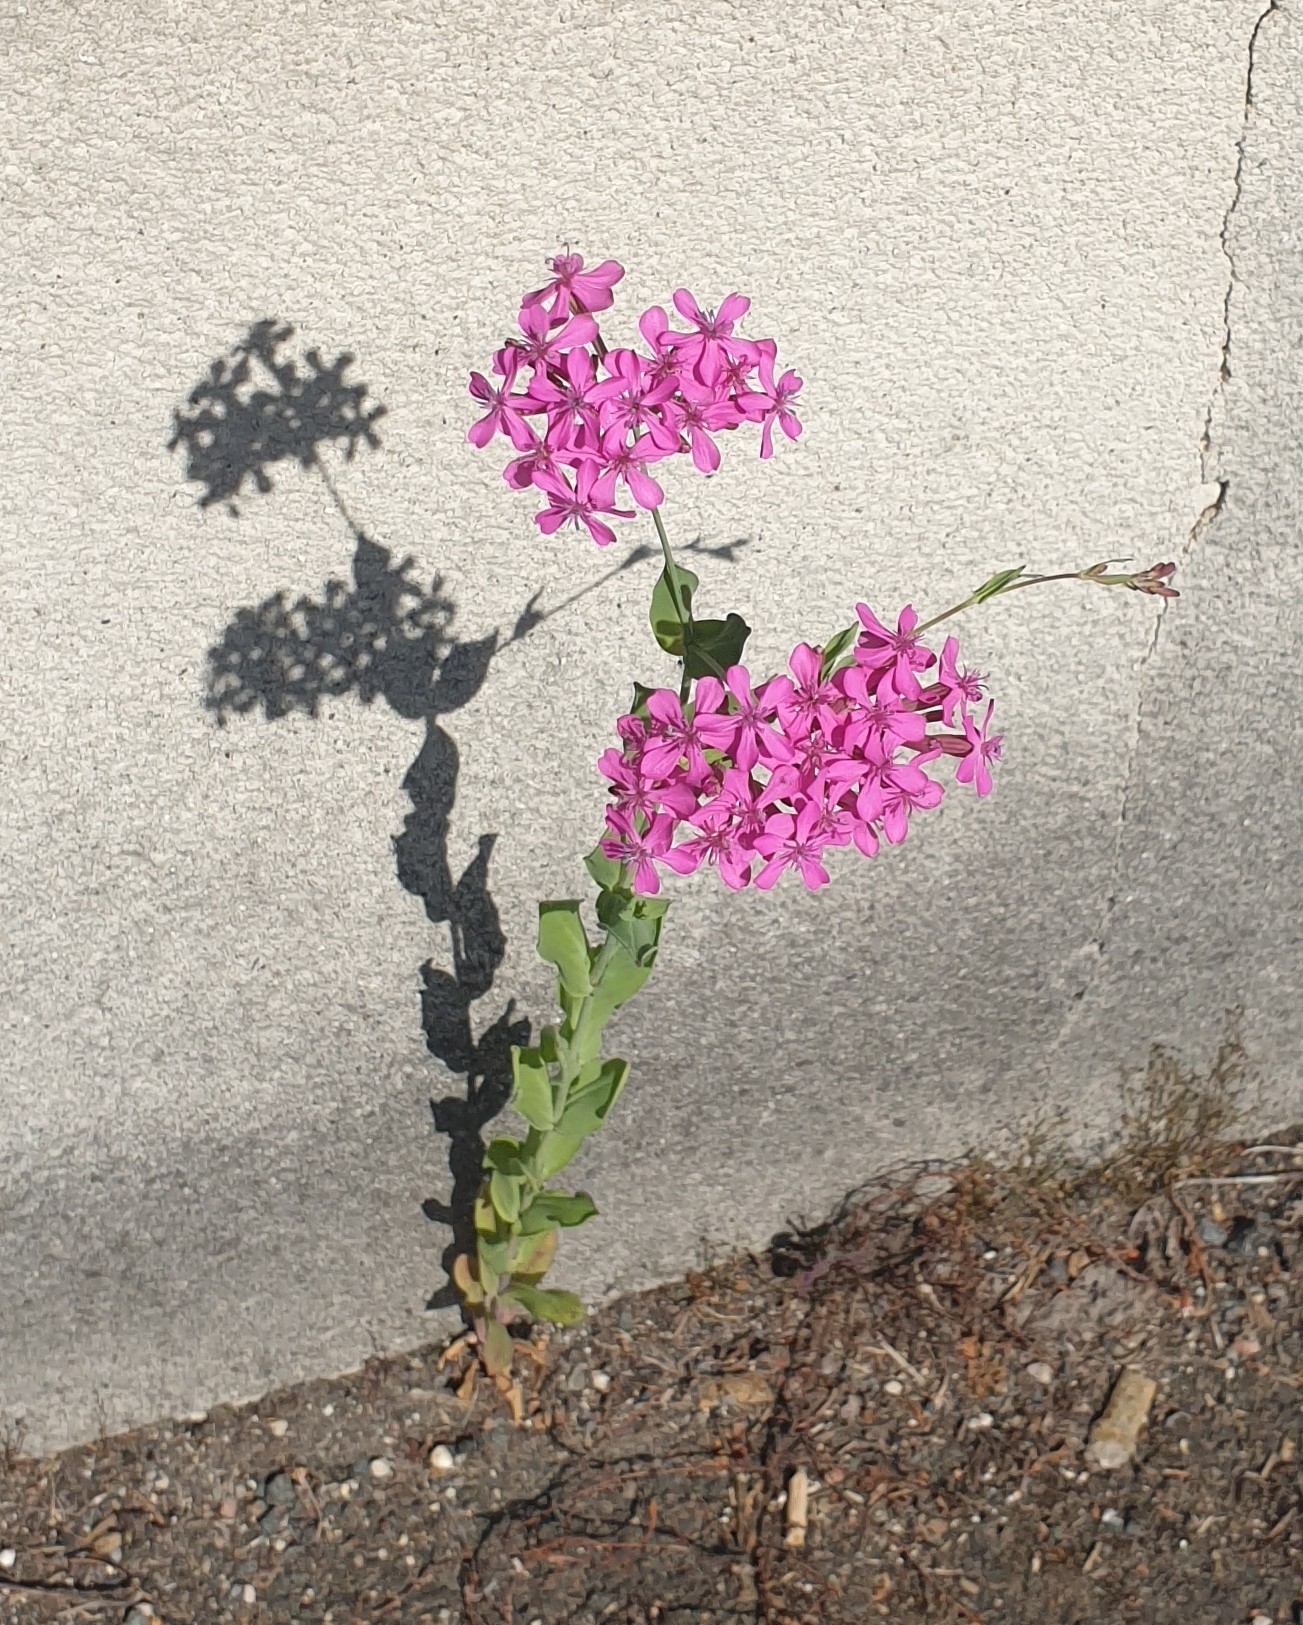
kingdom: Plantae
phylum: Tracheophyta
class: Magnoliopsida
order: Caryophyllales
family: Caryophyllaceae
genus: Atocion
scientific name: Atocion armeria
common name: Sweet william catchfly
